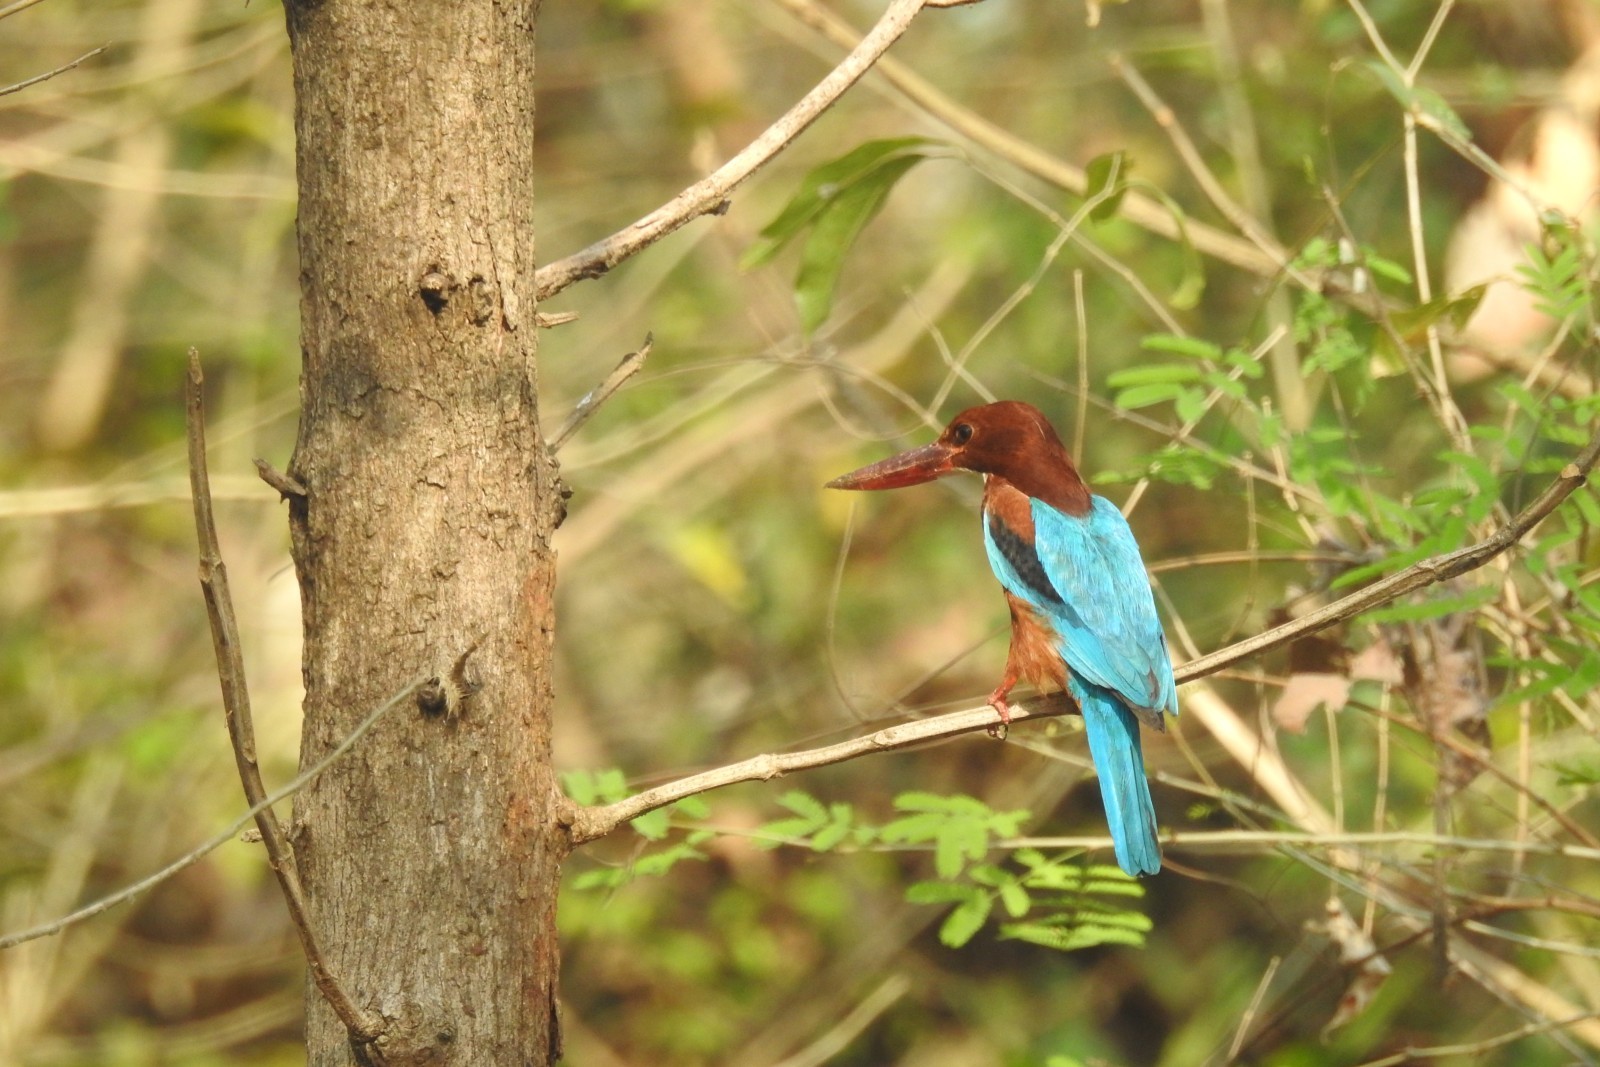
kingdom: Animalia
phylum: Chordata
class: Aves
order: Coraciiformes
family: Alcedinidae
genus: Halcyon
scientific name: Halcyon smyrnensis
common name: White-throated kingfisher
